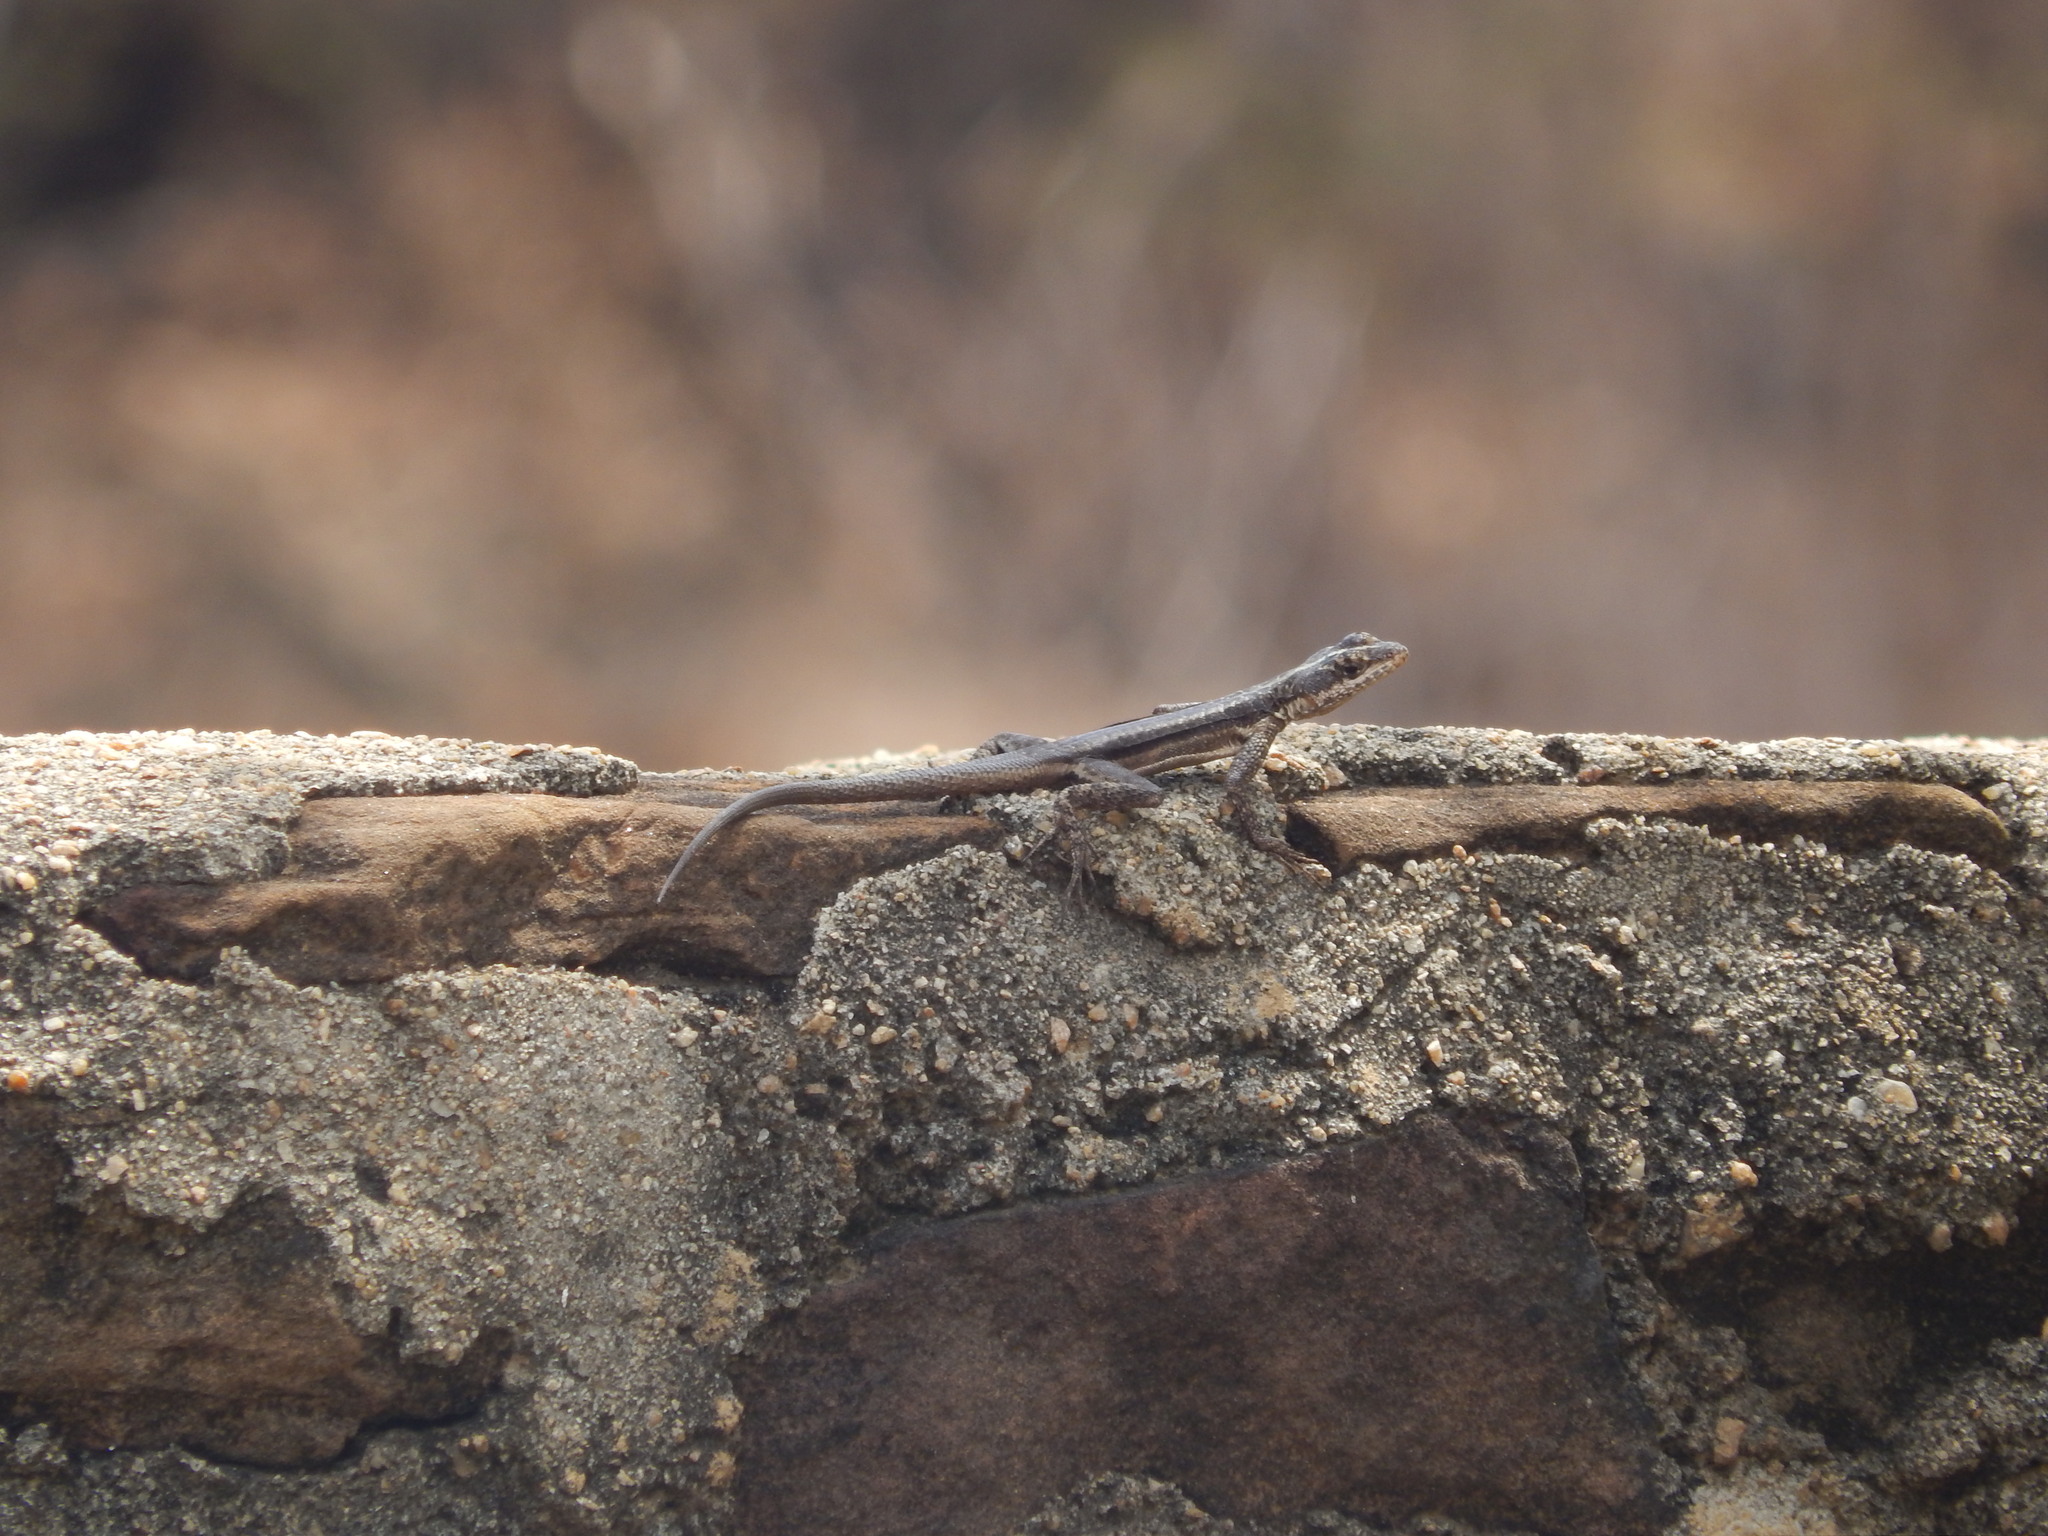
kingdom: Animalia
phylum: Chordata
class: Squamata
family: Tropiduridae
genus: Tropidurus
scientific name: Tropidurus semitaeniatus
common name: Striped lava lizard
